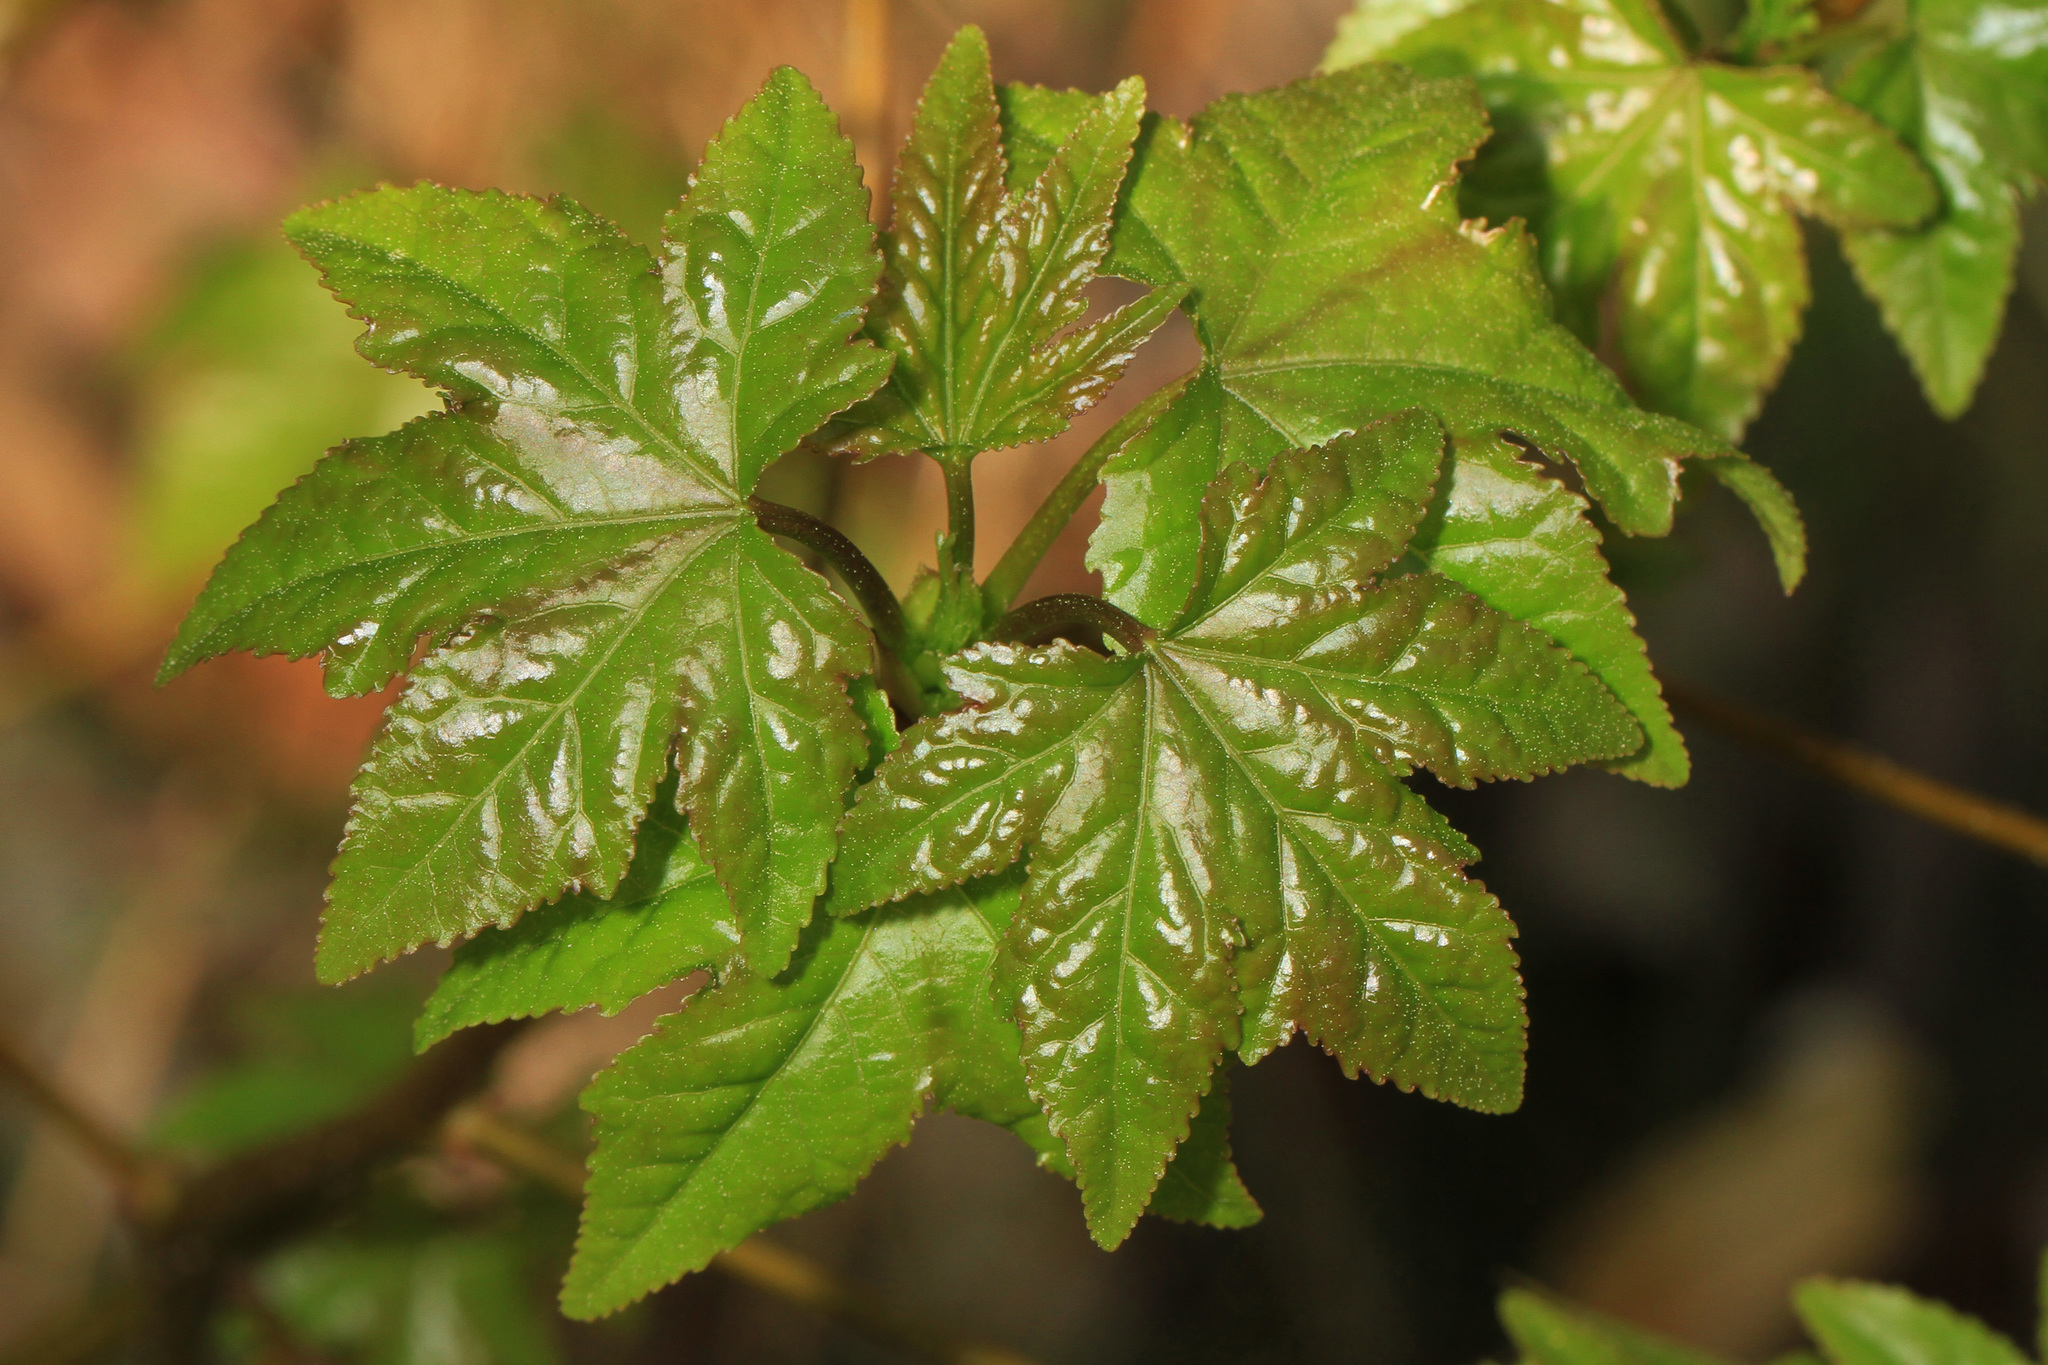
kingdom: Plantae
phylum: Tracheophyta
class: Magnoliopsida
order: Saxifragales
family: Altingiaceae
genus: Liquidambar
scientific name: Liquidambar styraciflua
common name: Sweet gum
